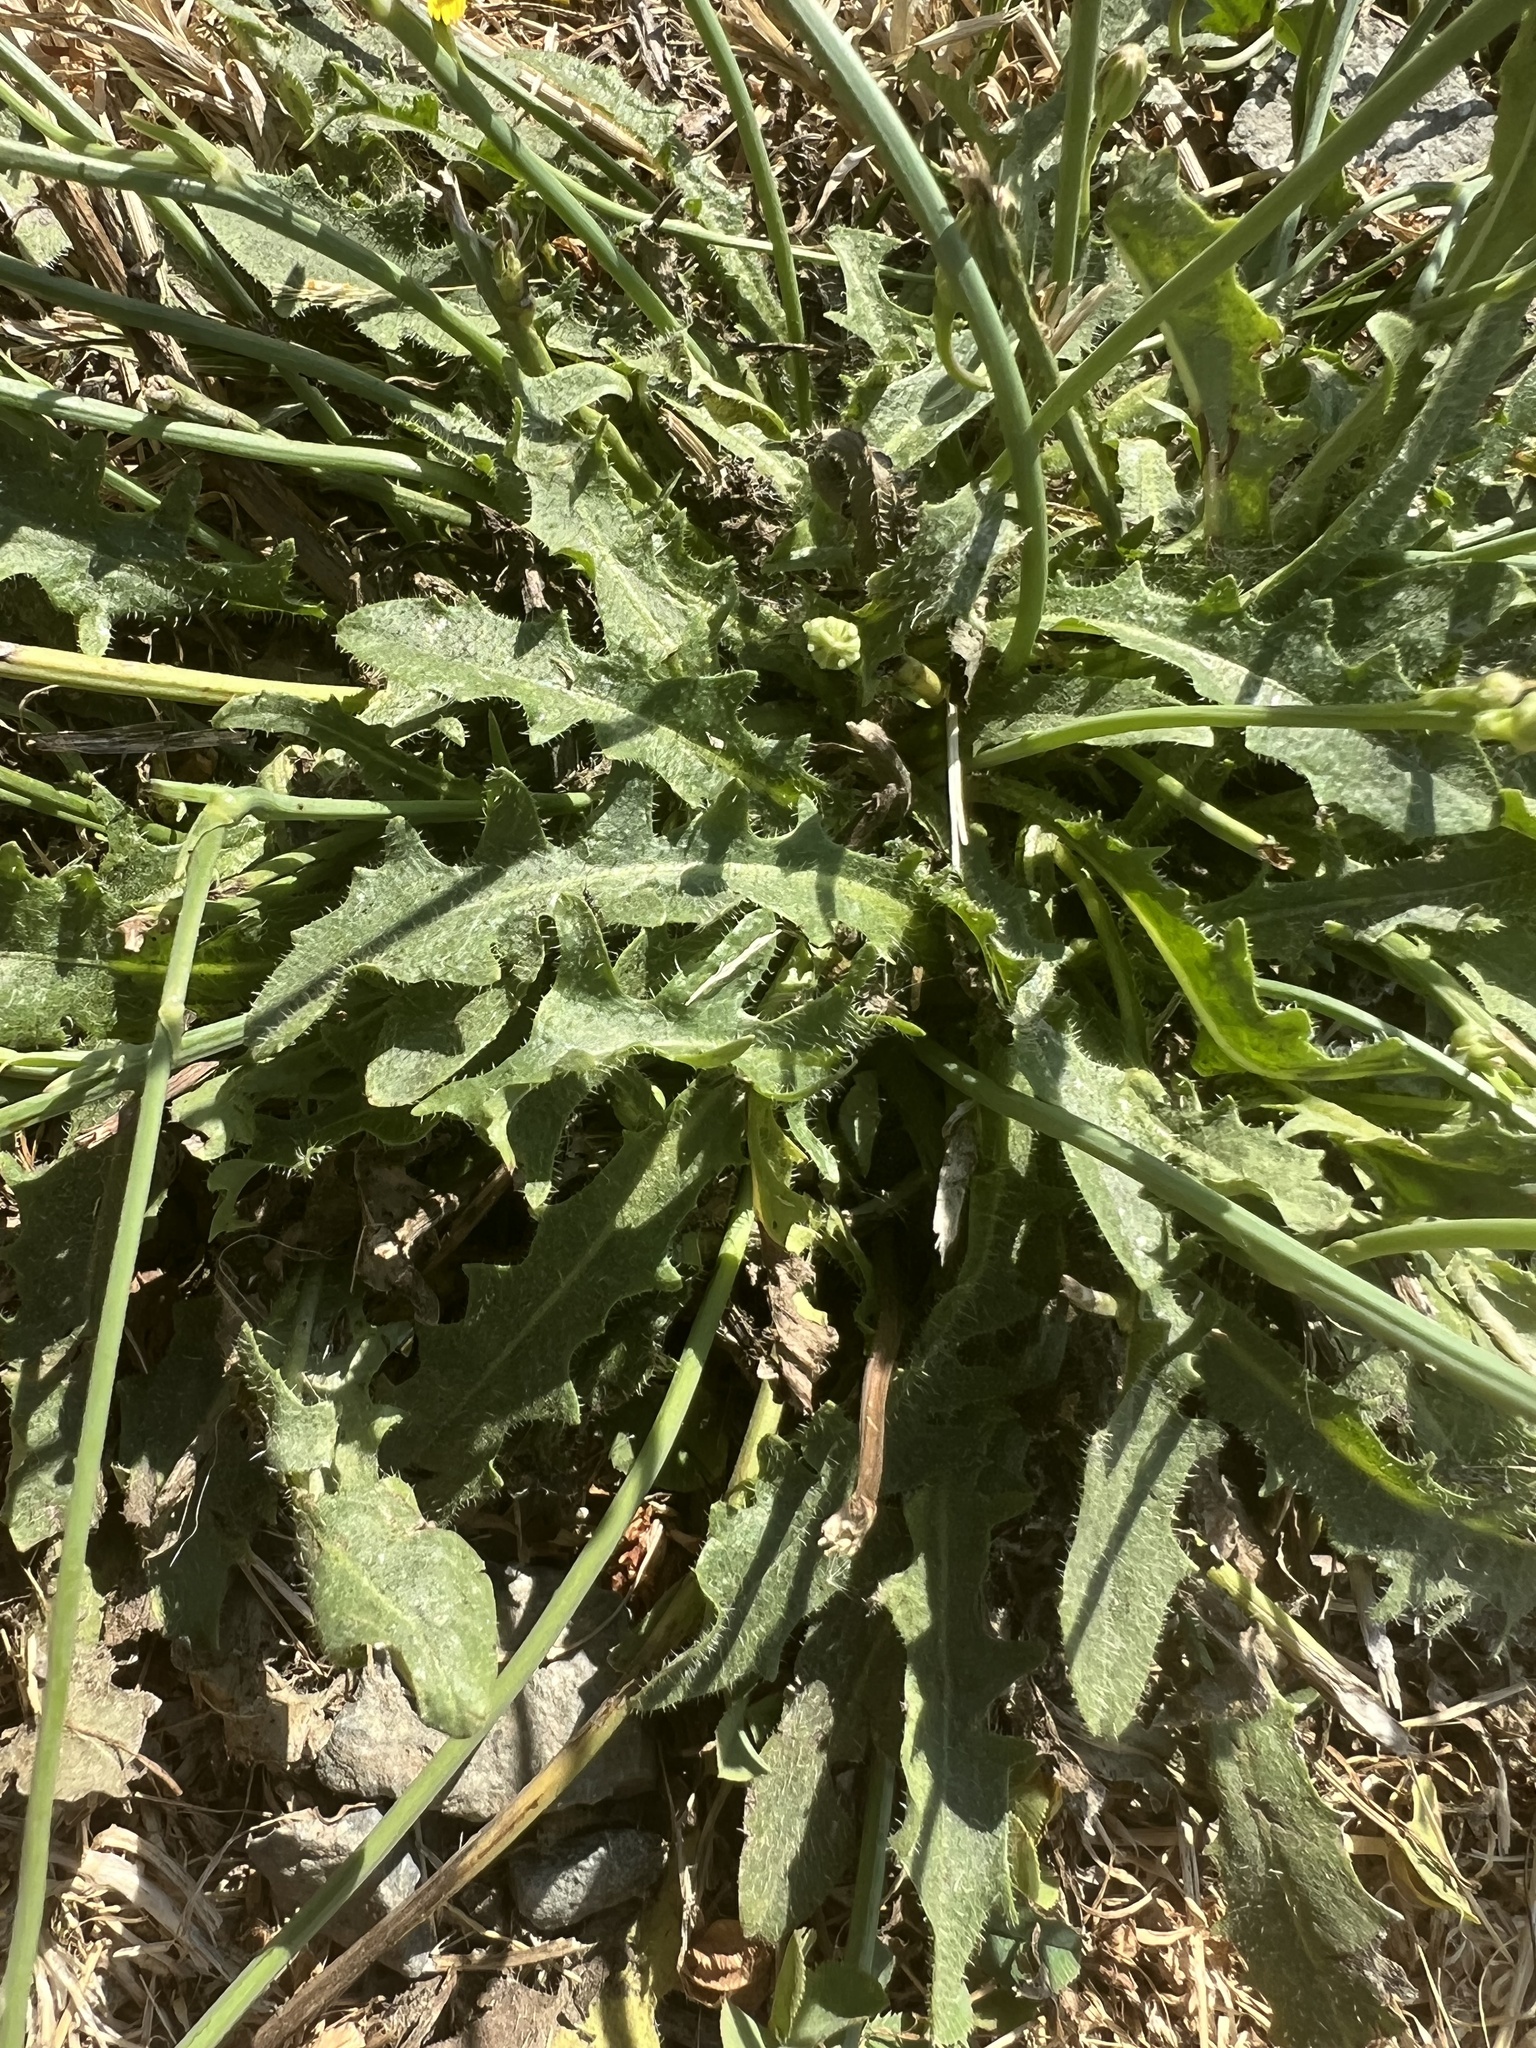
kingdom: Plantae
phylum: Tracheophyta
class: Magnoliopsida
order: Asterales
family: Asteraceae
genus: Hypochaeris
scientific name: Hypochaeris radicata
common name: Flatweed
